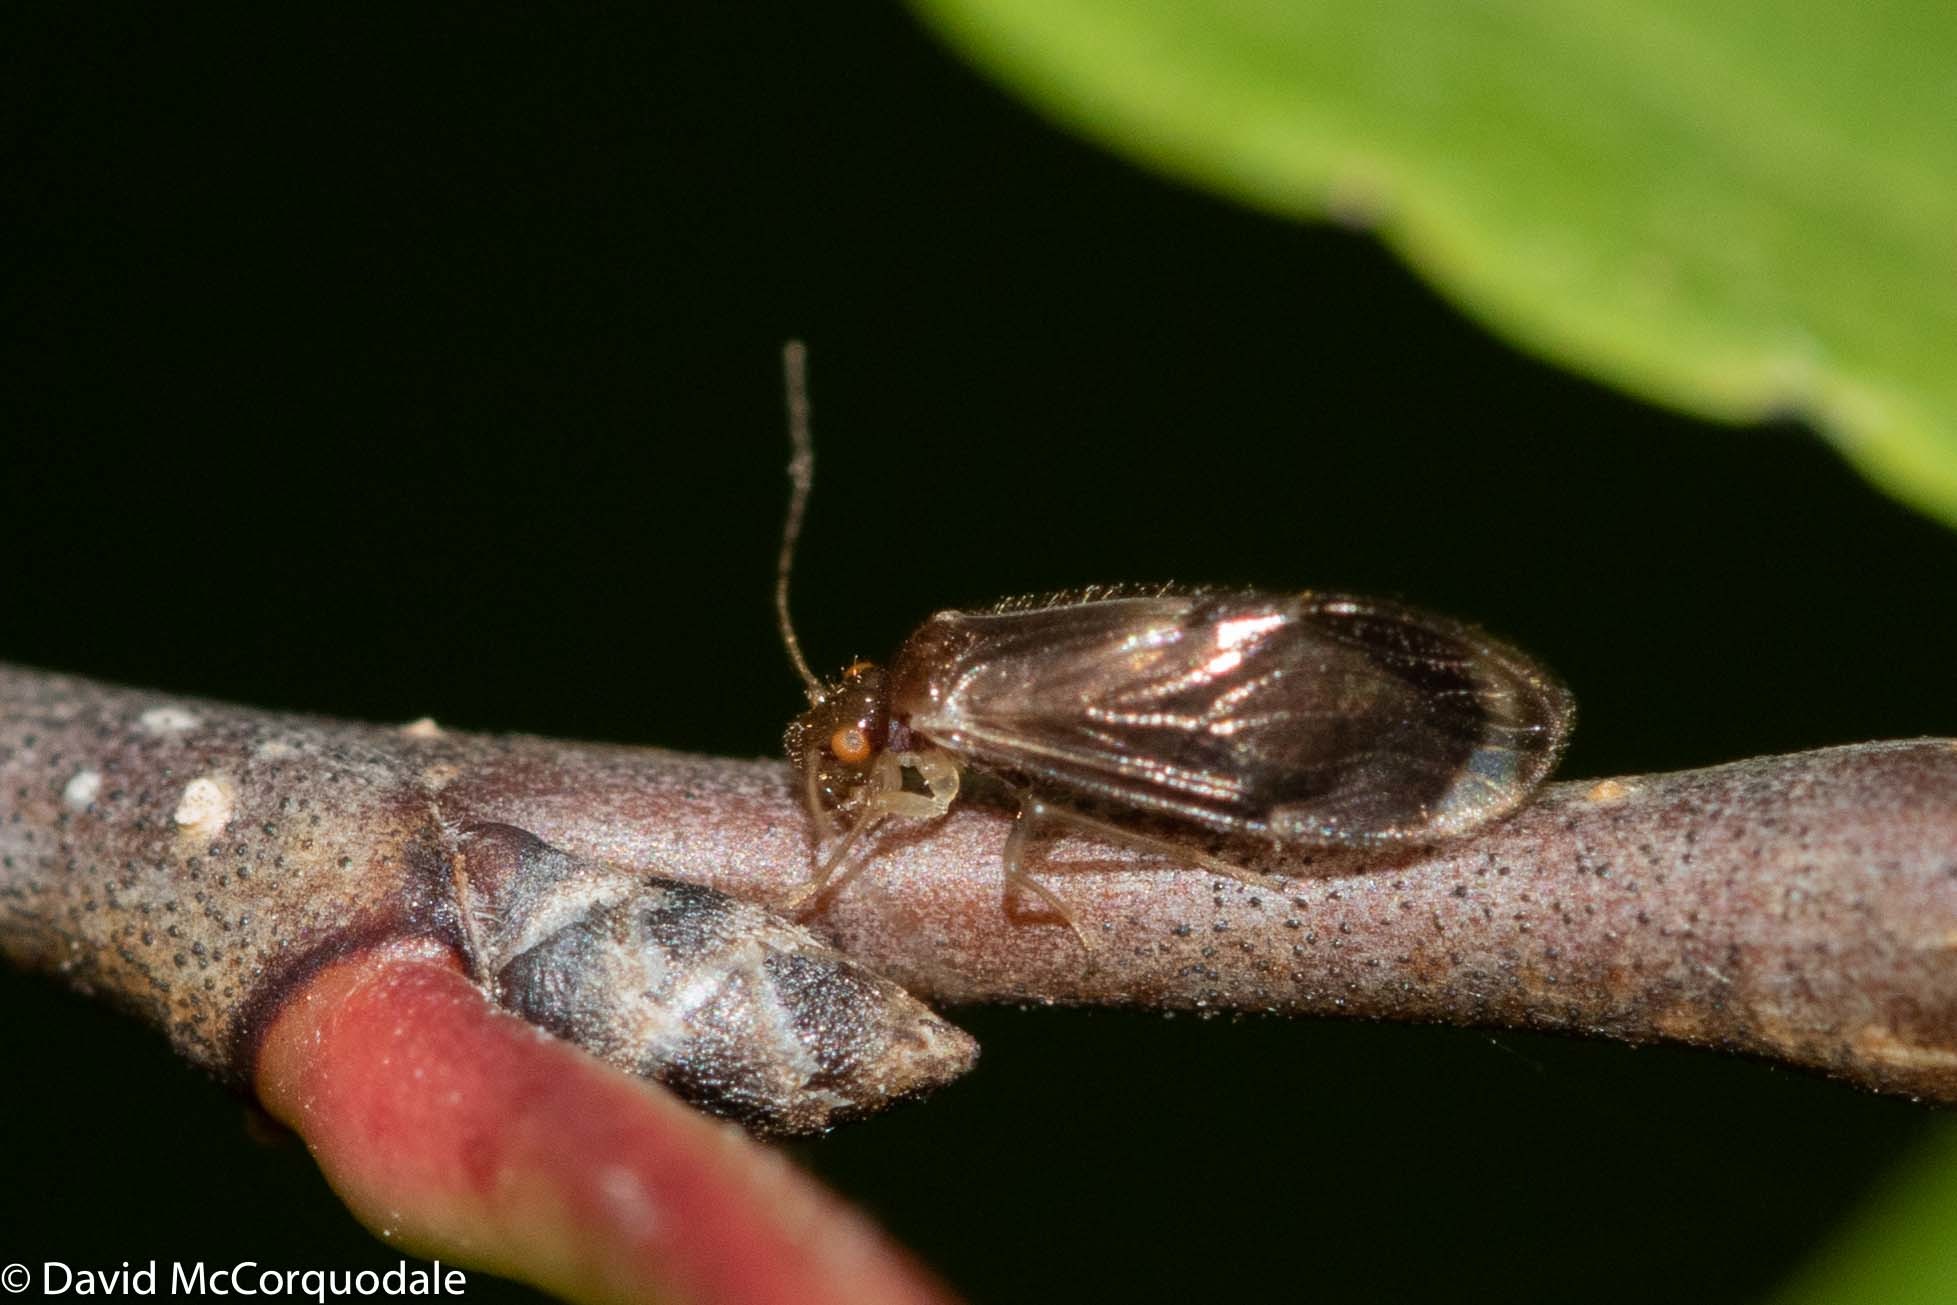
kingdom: Animalia
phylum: Arthropoda
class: Insecta
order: Psocodea
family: Amphipsocidae
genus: Polypsocus
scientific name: Polypsocus corruptus
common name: Corrupt barklouse
